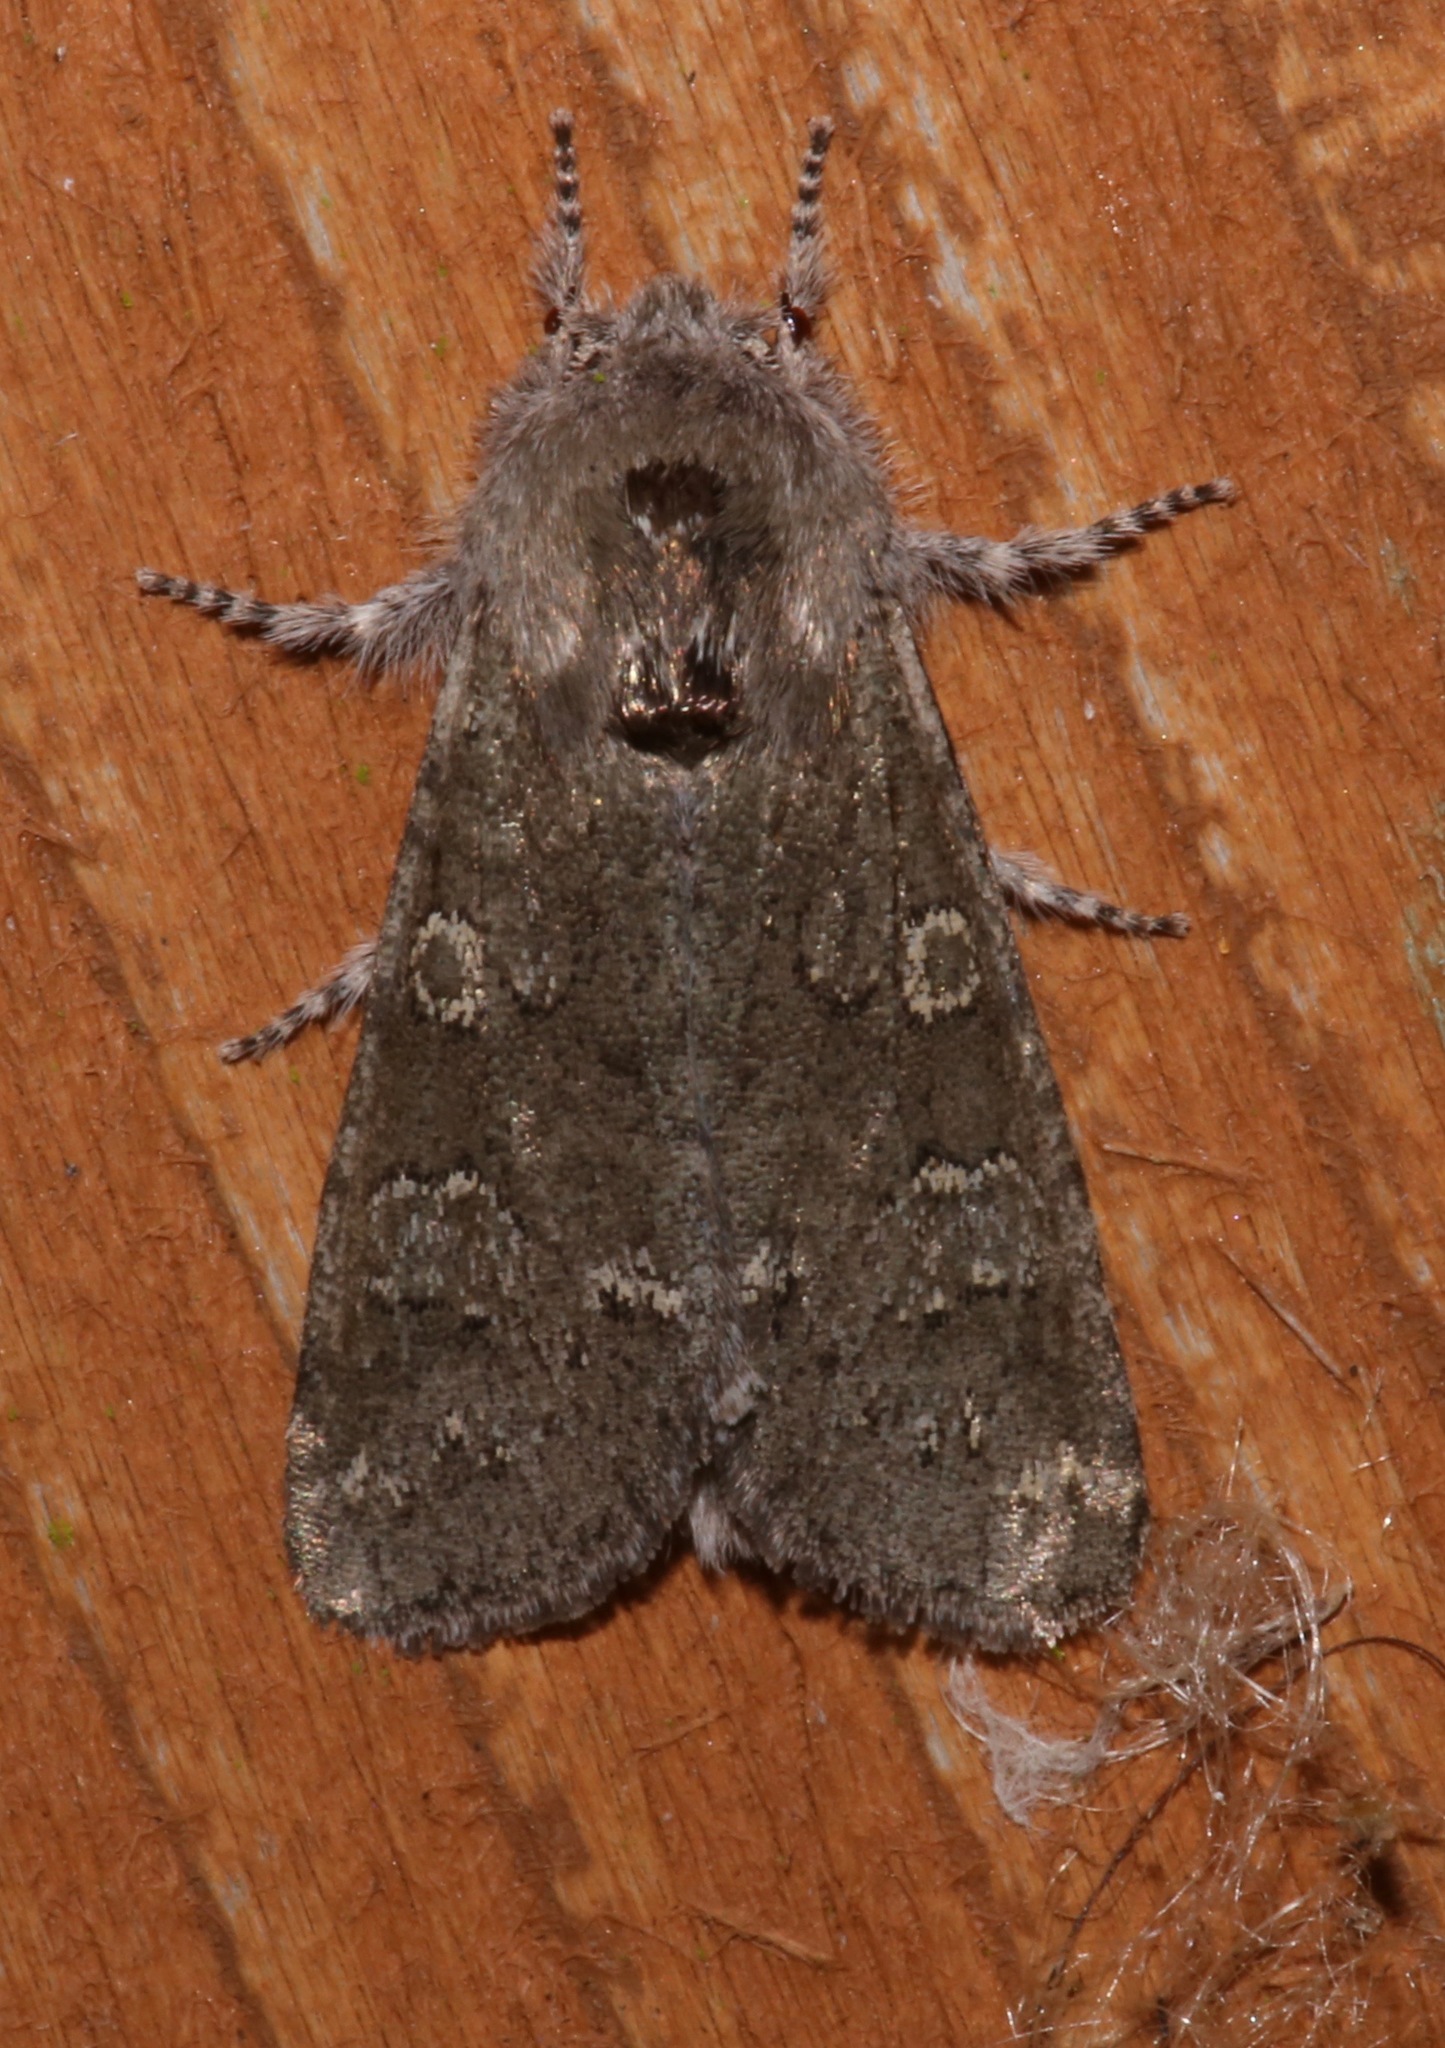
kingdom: Animalia
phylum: Arthropoda
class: Insecta
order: Lepidoptera
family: Noctuidae
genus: Psaphida
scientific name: Psaphida rolandi
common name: Roland's sallow
